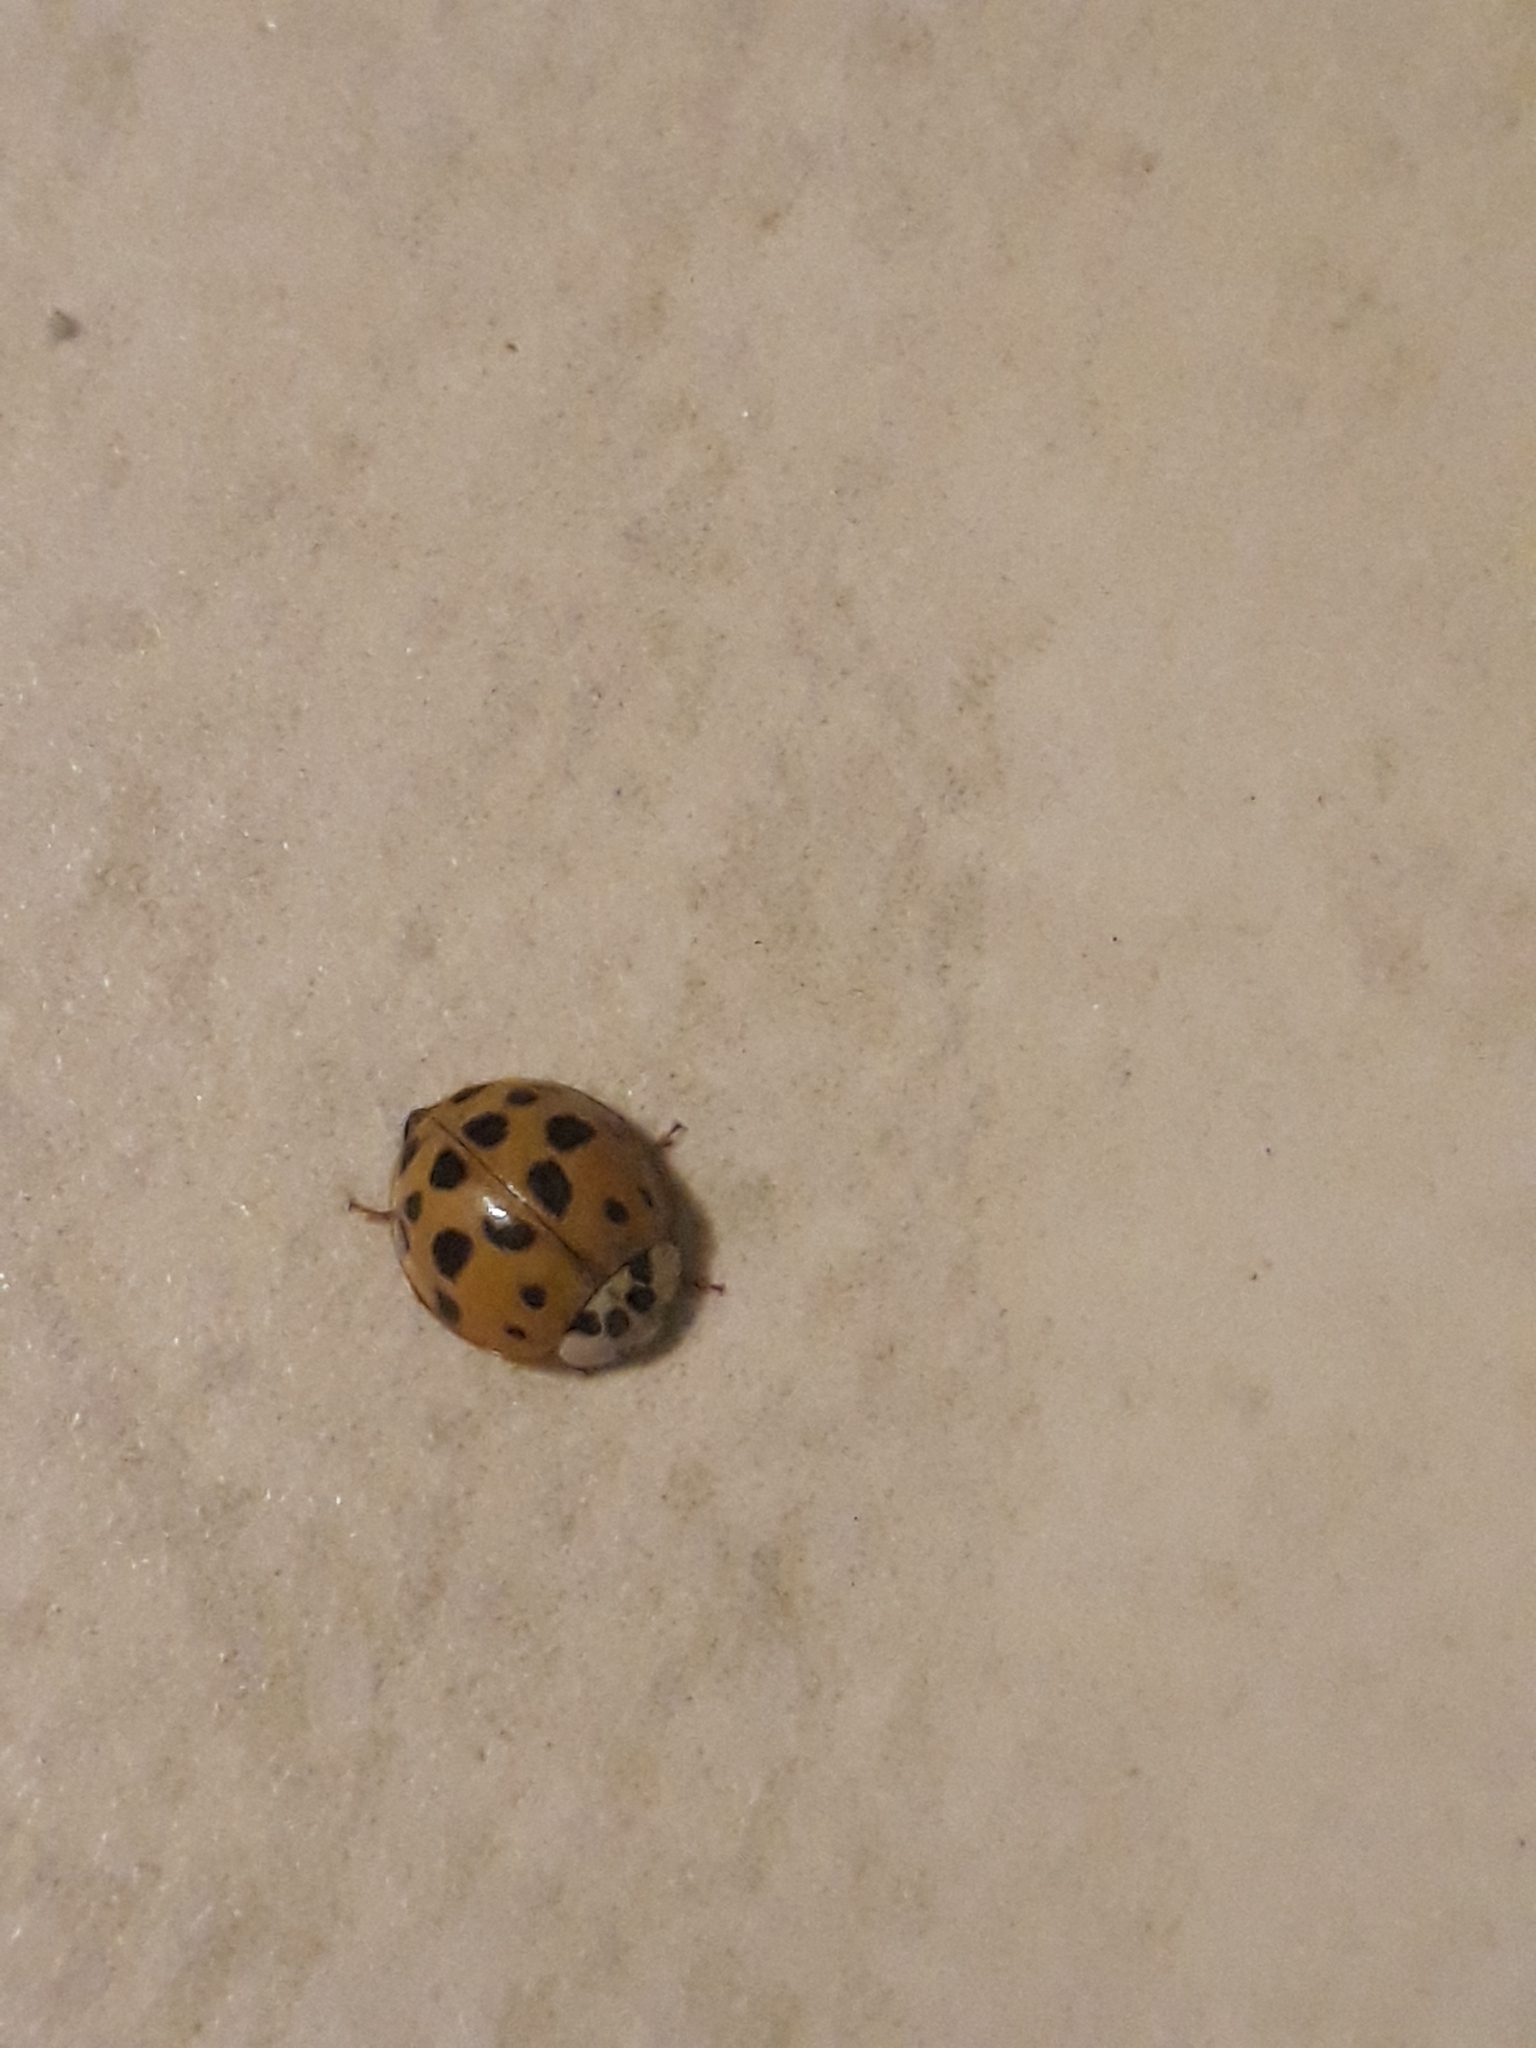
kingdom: Animalia
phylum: Arthropoda
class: Insecta
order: Coleoptera
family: Coccinellidae
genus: Harmonia
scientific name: Harmonia axyridis
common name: Harlequin ladybird
